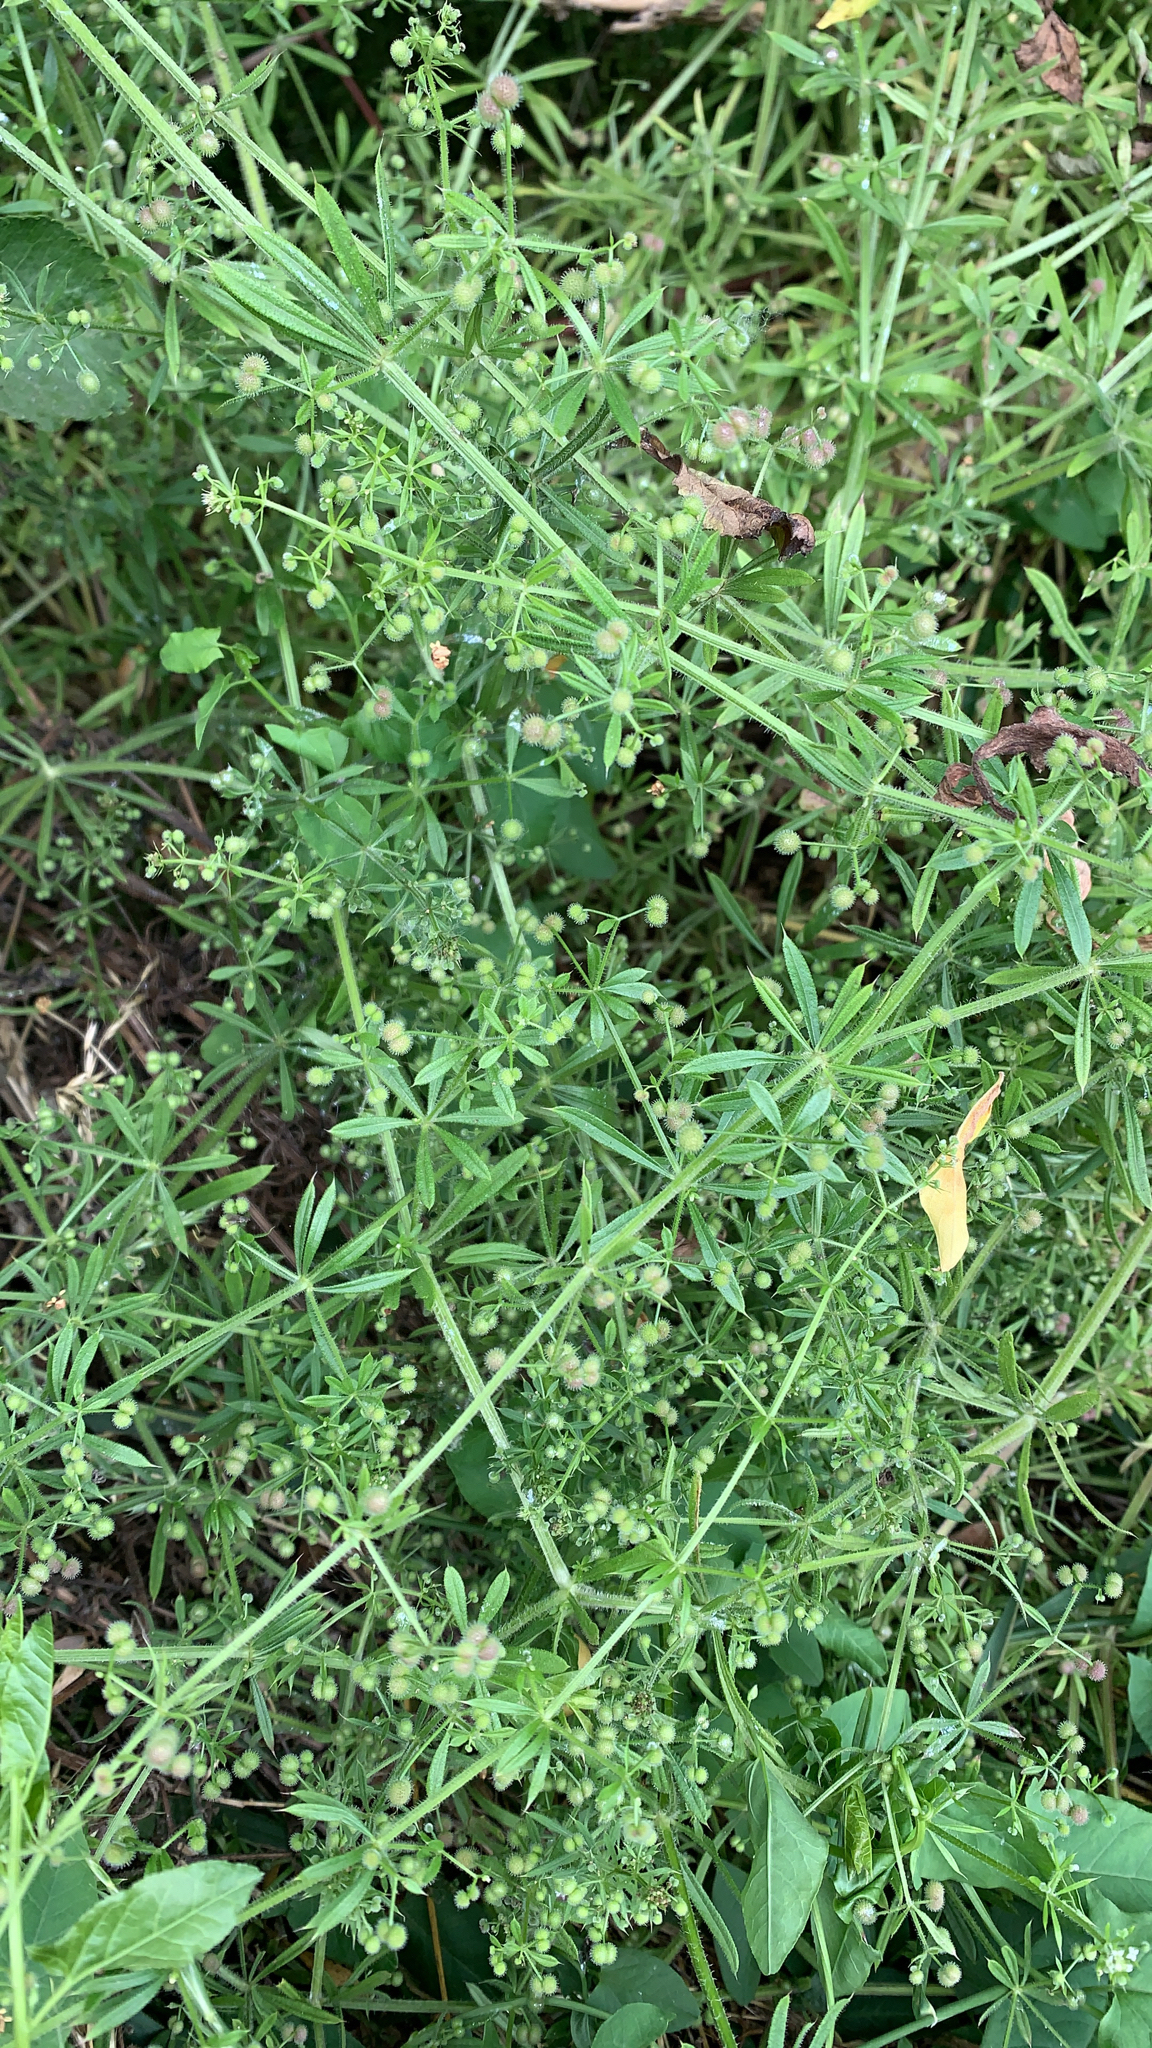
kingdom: Plantae
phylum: Tracheophyta
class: Magnoliopsida
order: Gentianales
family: Rubiaceae
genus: Galium
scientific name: Galium aparine
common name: Cleavers
